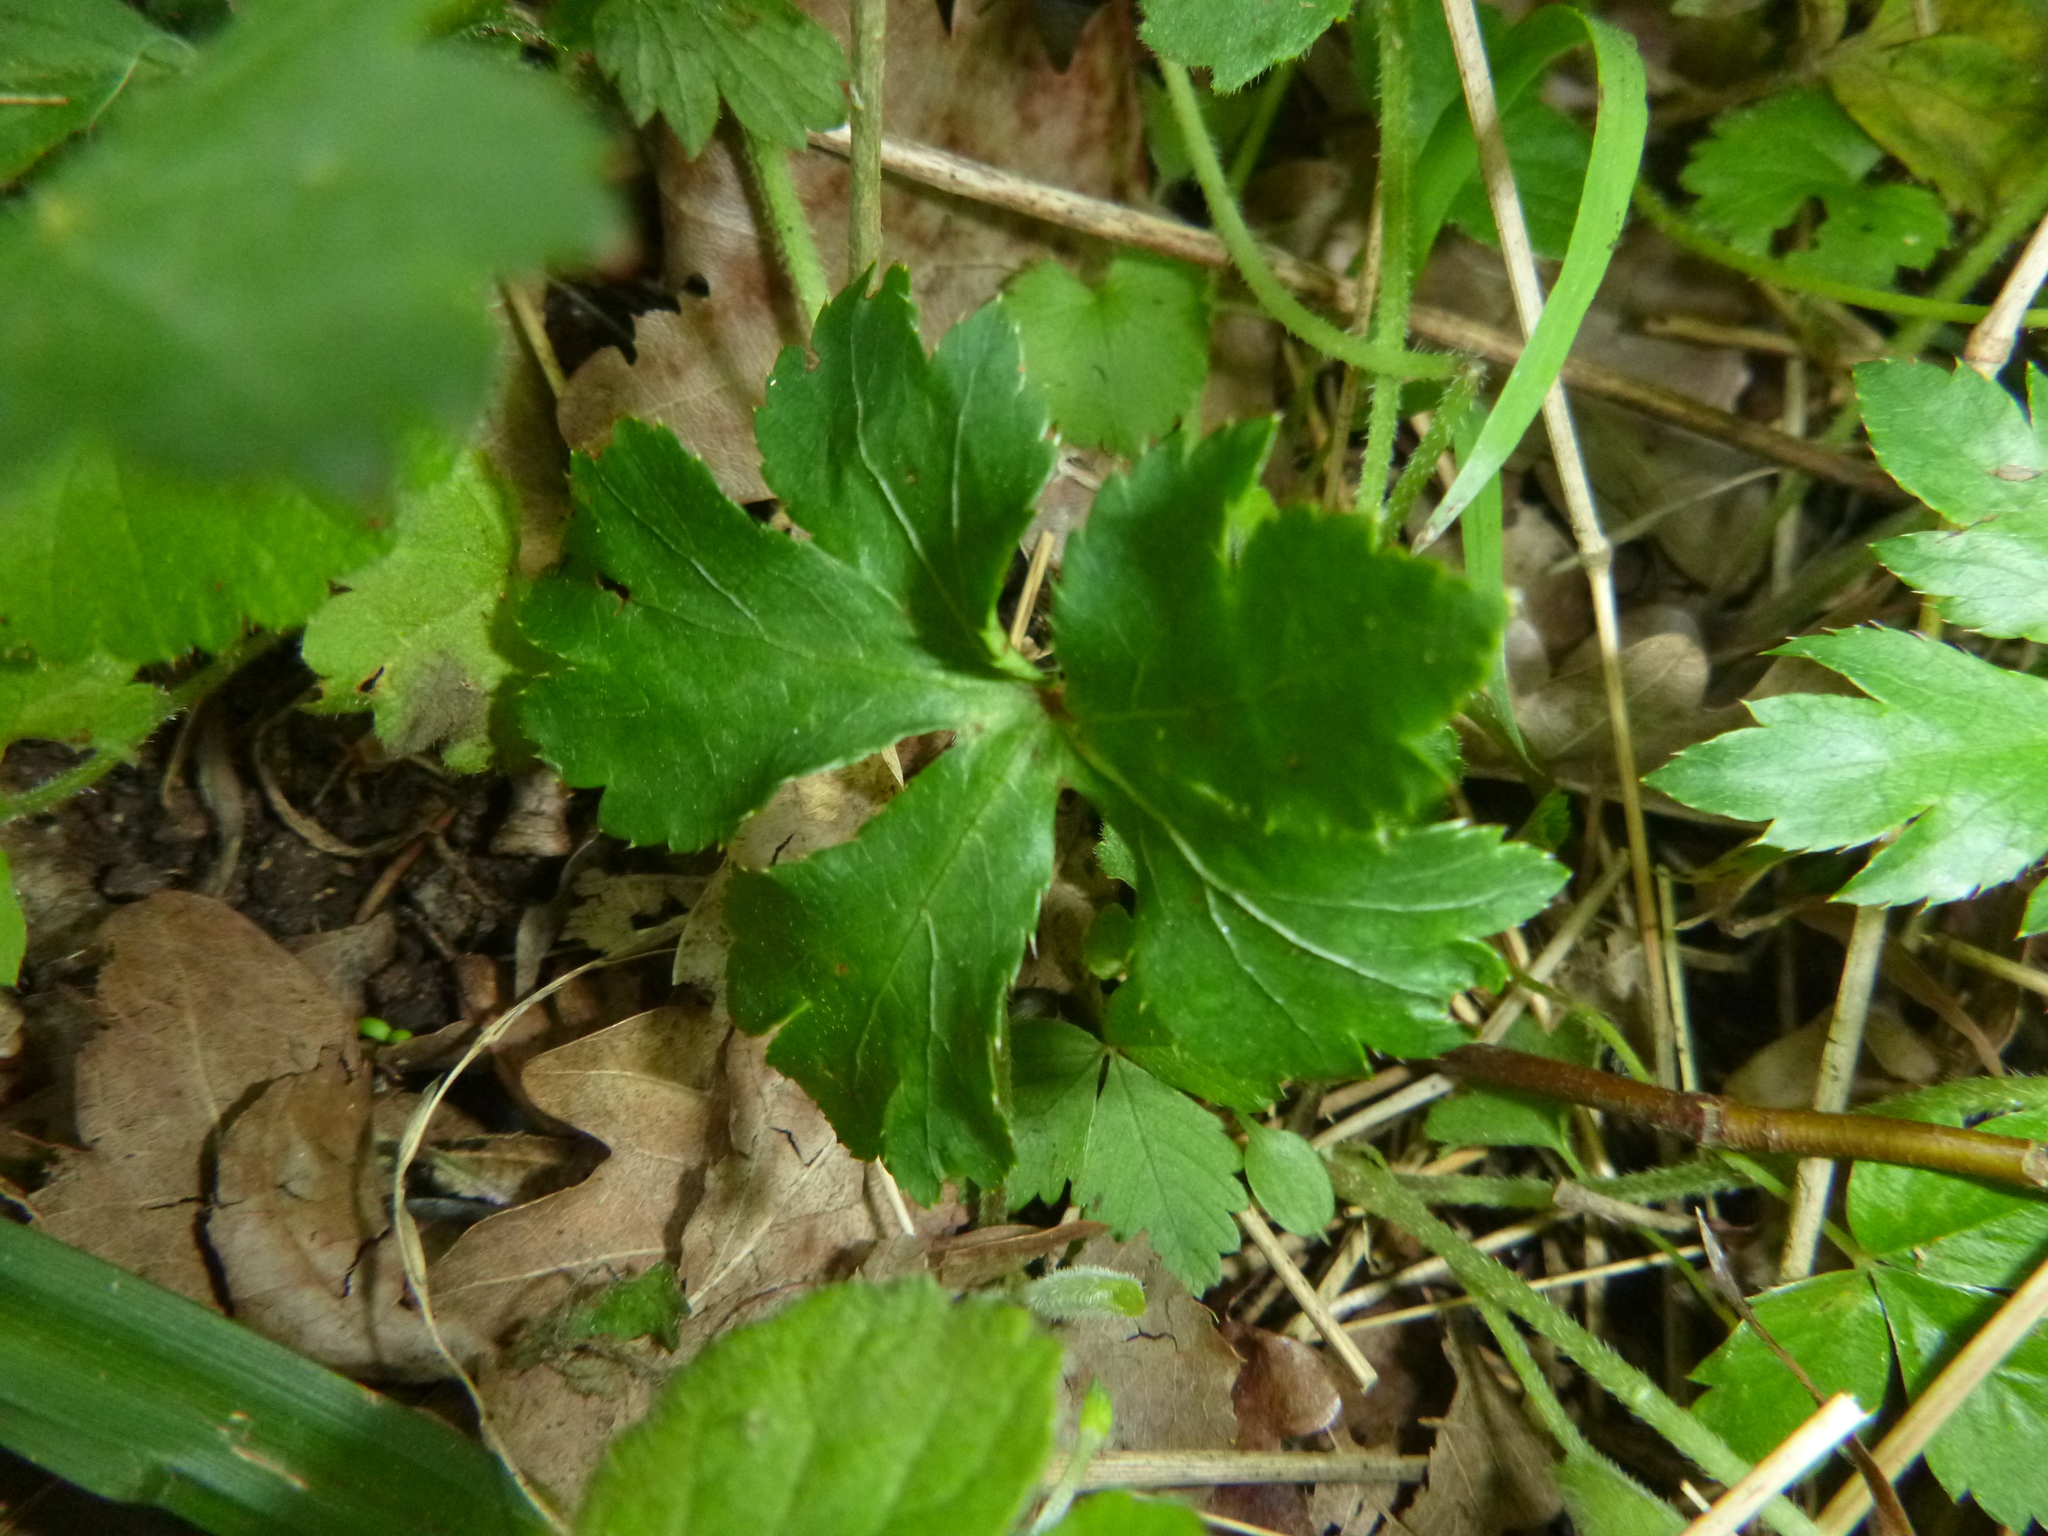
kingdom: Plantae
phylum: Tracheophyta
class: Magnoliopsida
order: Apiales
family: Apiaceae
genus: Sanicula
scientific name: Sanicula europaea
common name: Sanicle
